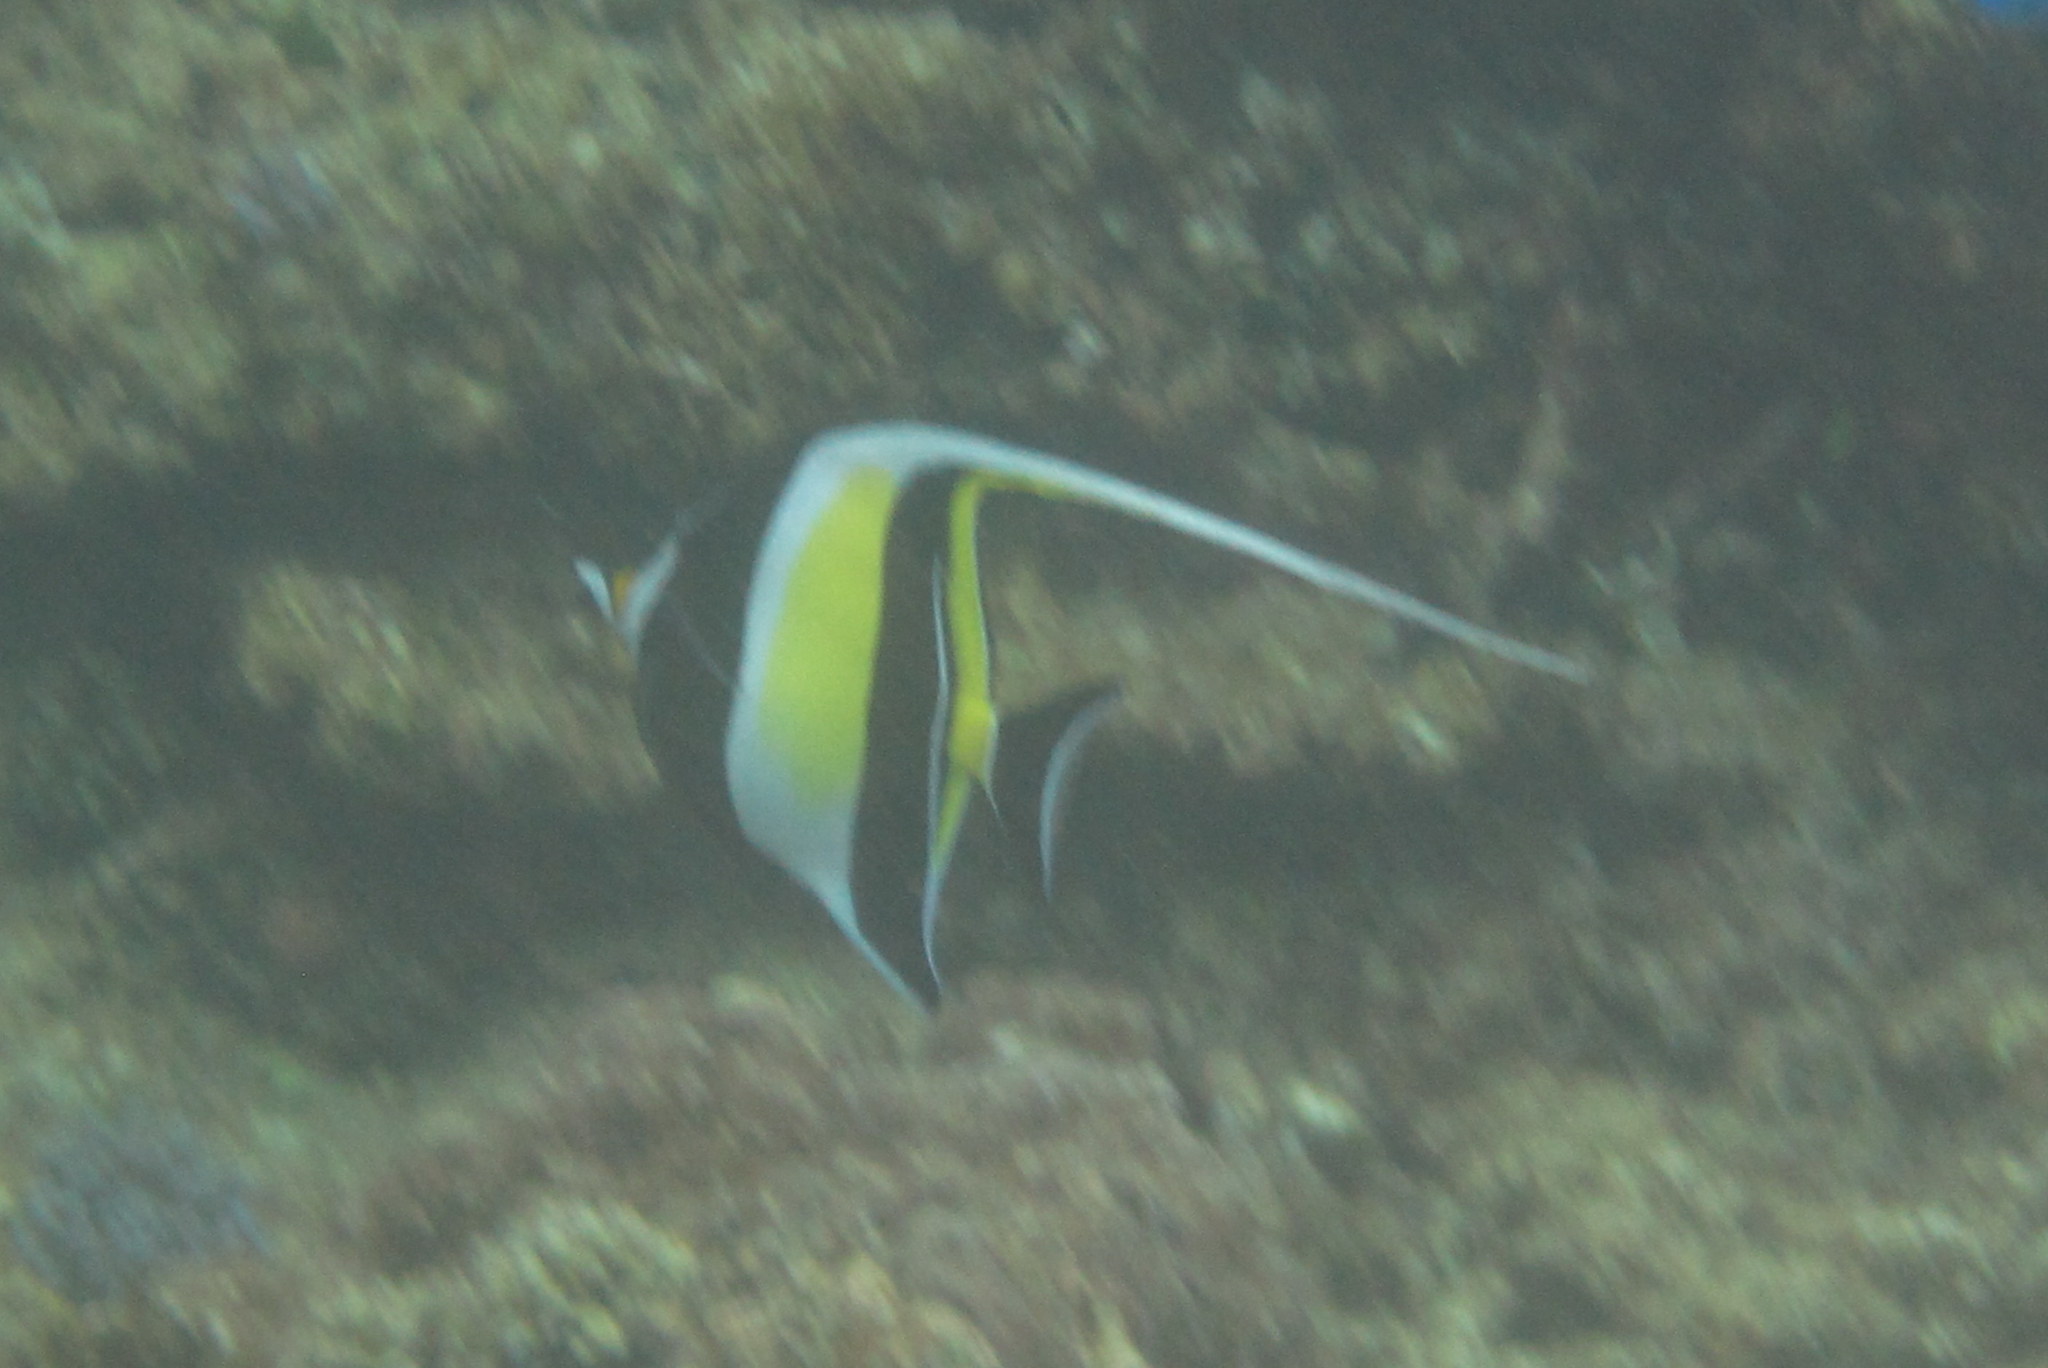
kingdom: Animalia
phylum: Chordata
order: Perciformes
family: Zanclidae
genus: Zanclus
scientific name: Zanclus cornutus
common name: Moorish idol
